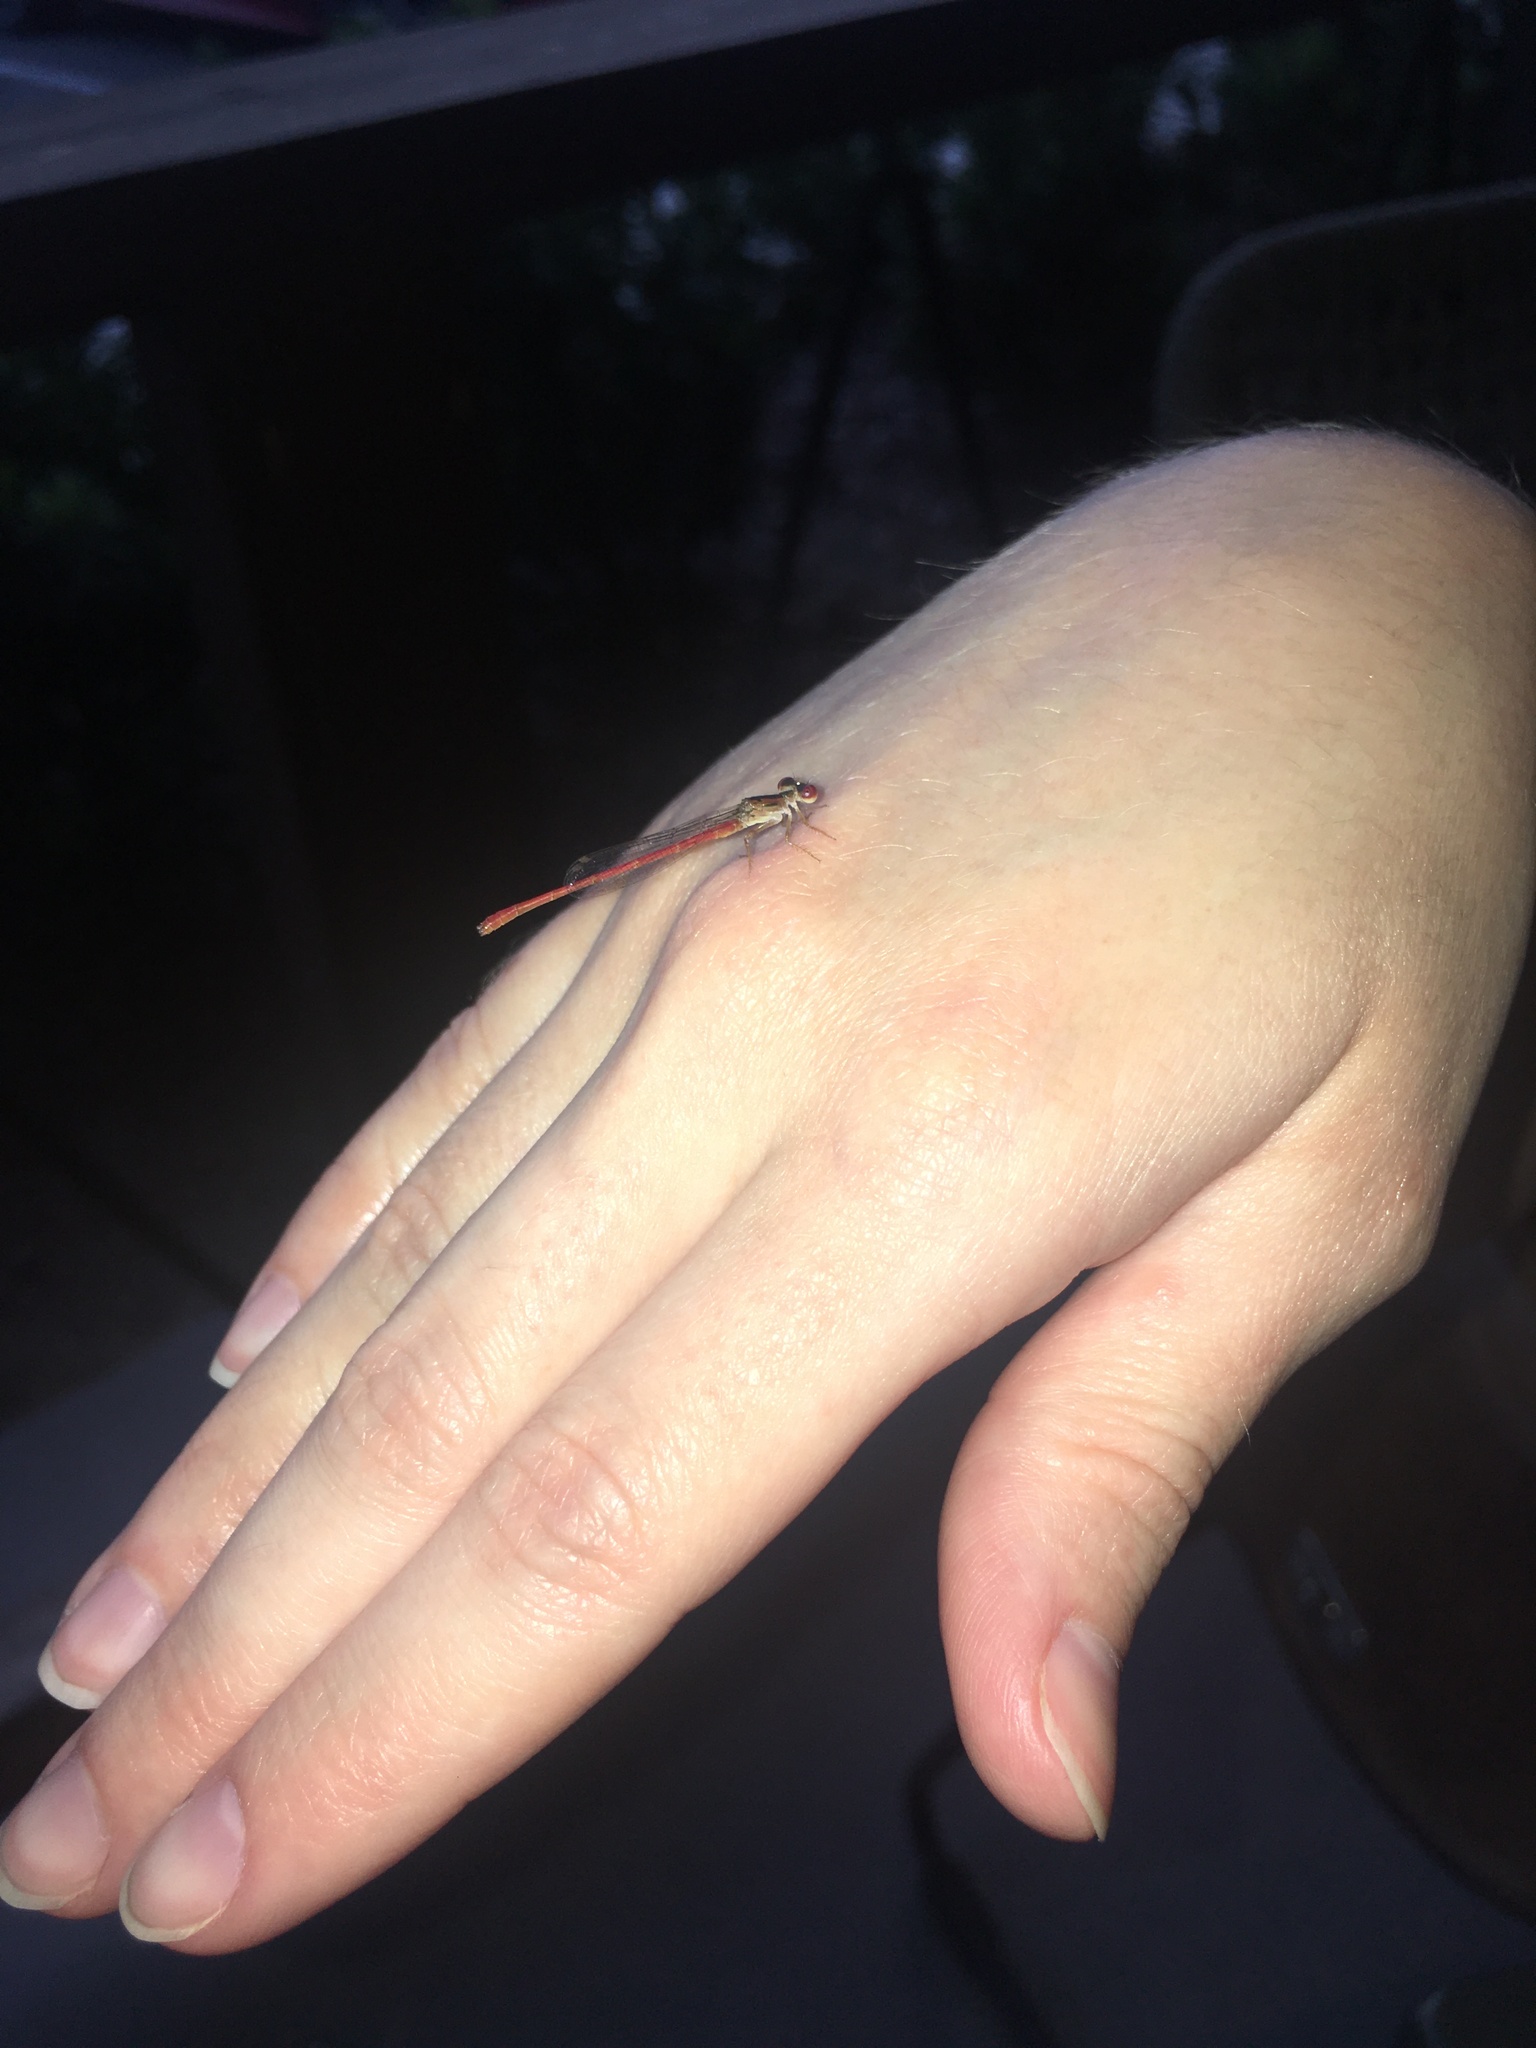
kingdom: Animalia
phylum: Arthropoda
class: Insecta
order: Odonata
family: Coenagrionidae
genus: Telebasis
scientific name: Telebasis byersi
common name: Duckweed firetail
